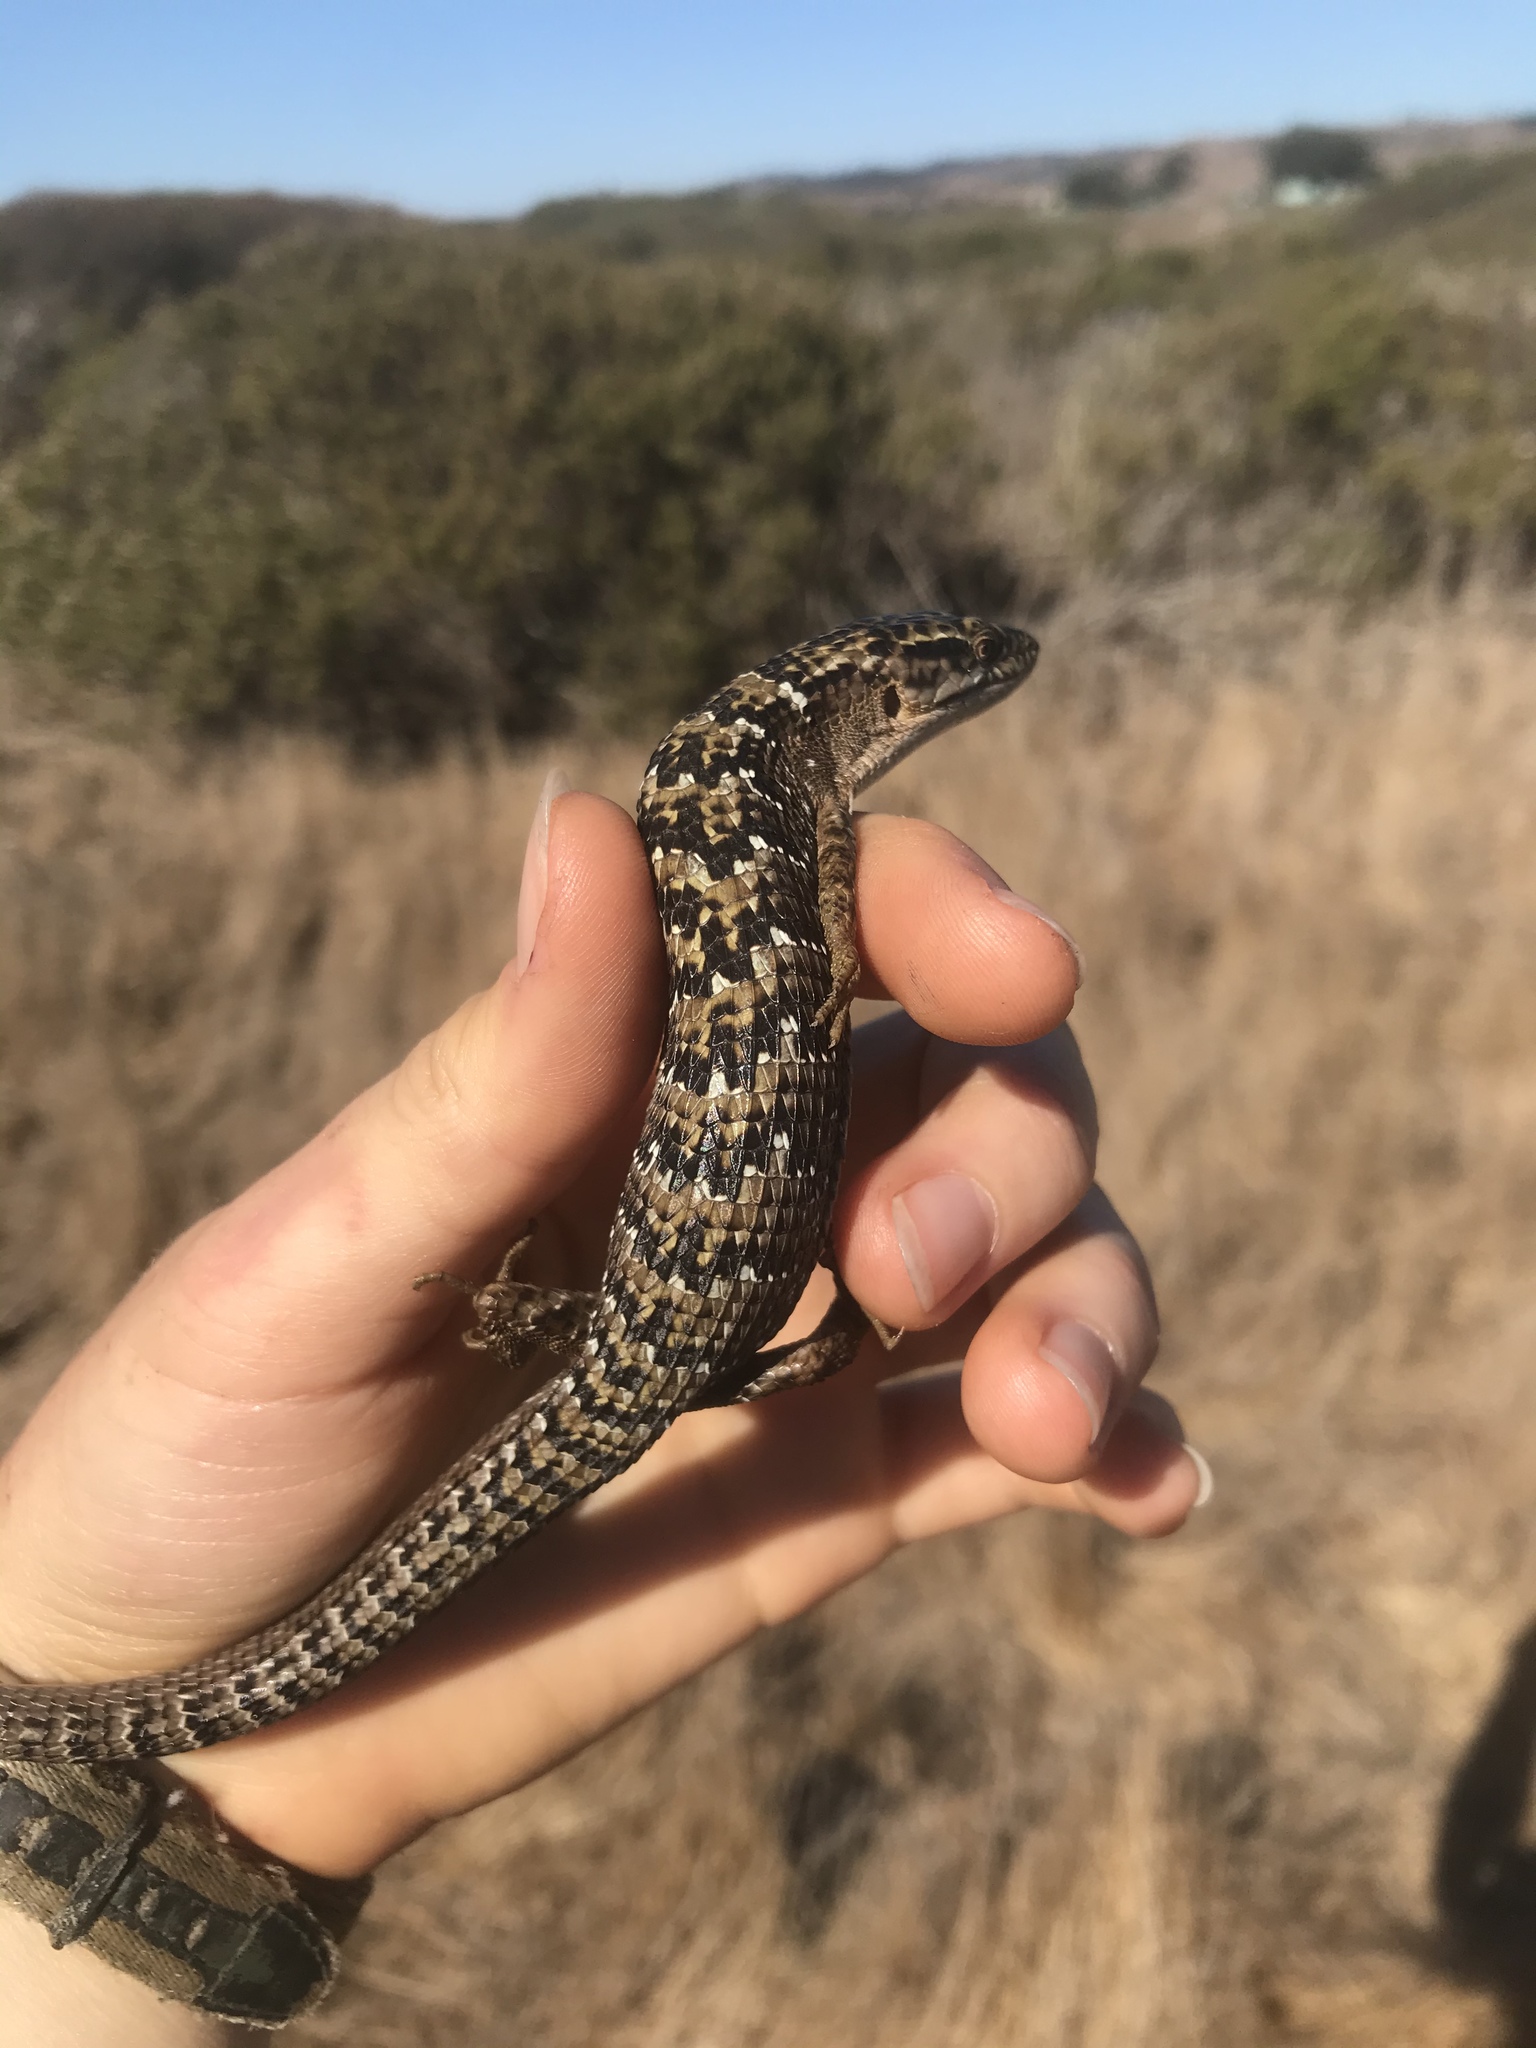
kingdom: Animalia
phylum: Chordata
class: Squamata
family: Anguidae
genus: Elgaria
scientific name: Elgaria multicarinata
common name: Southern alligator lizard
